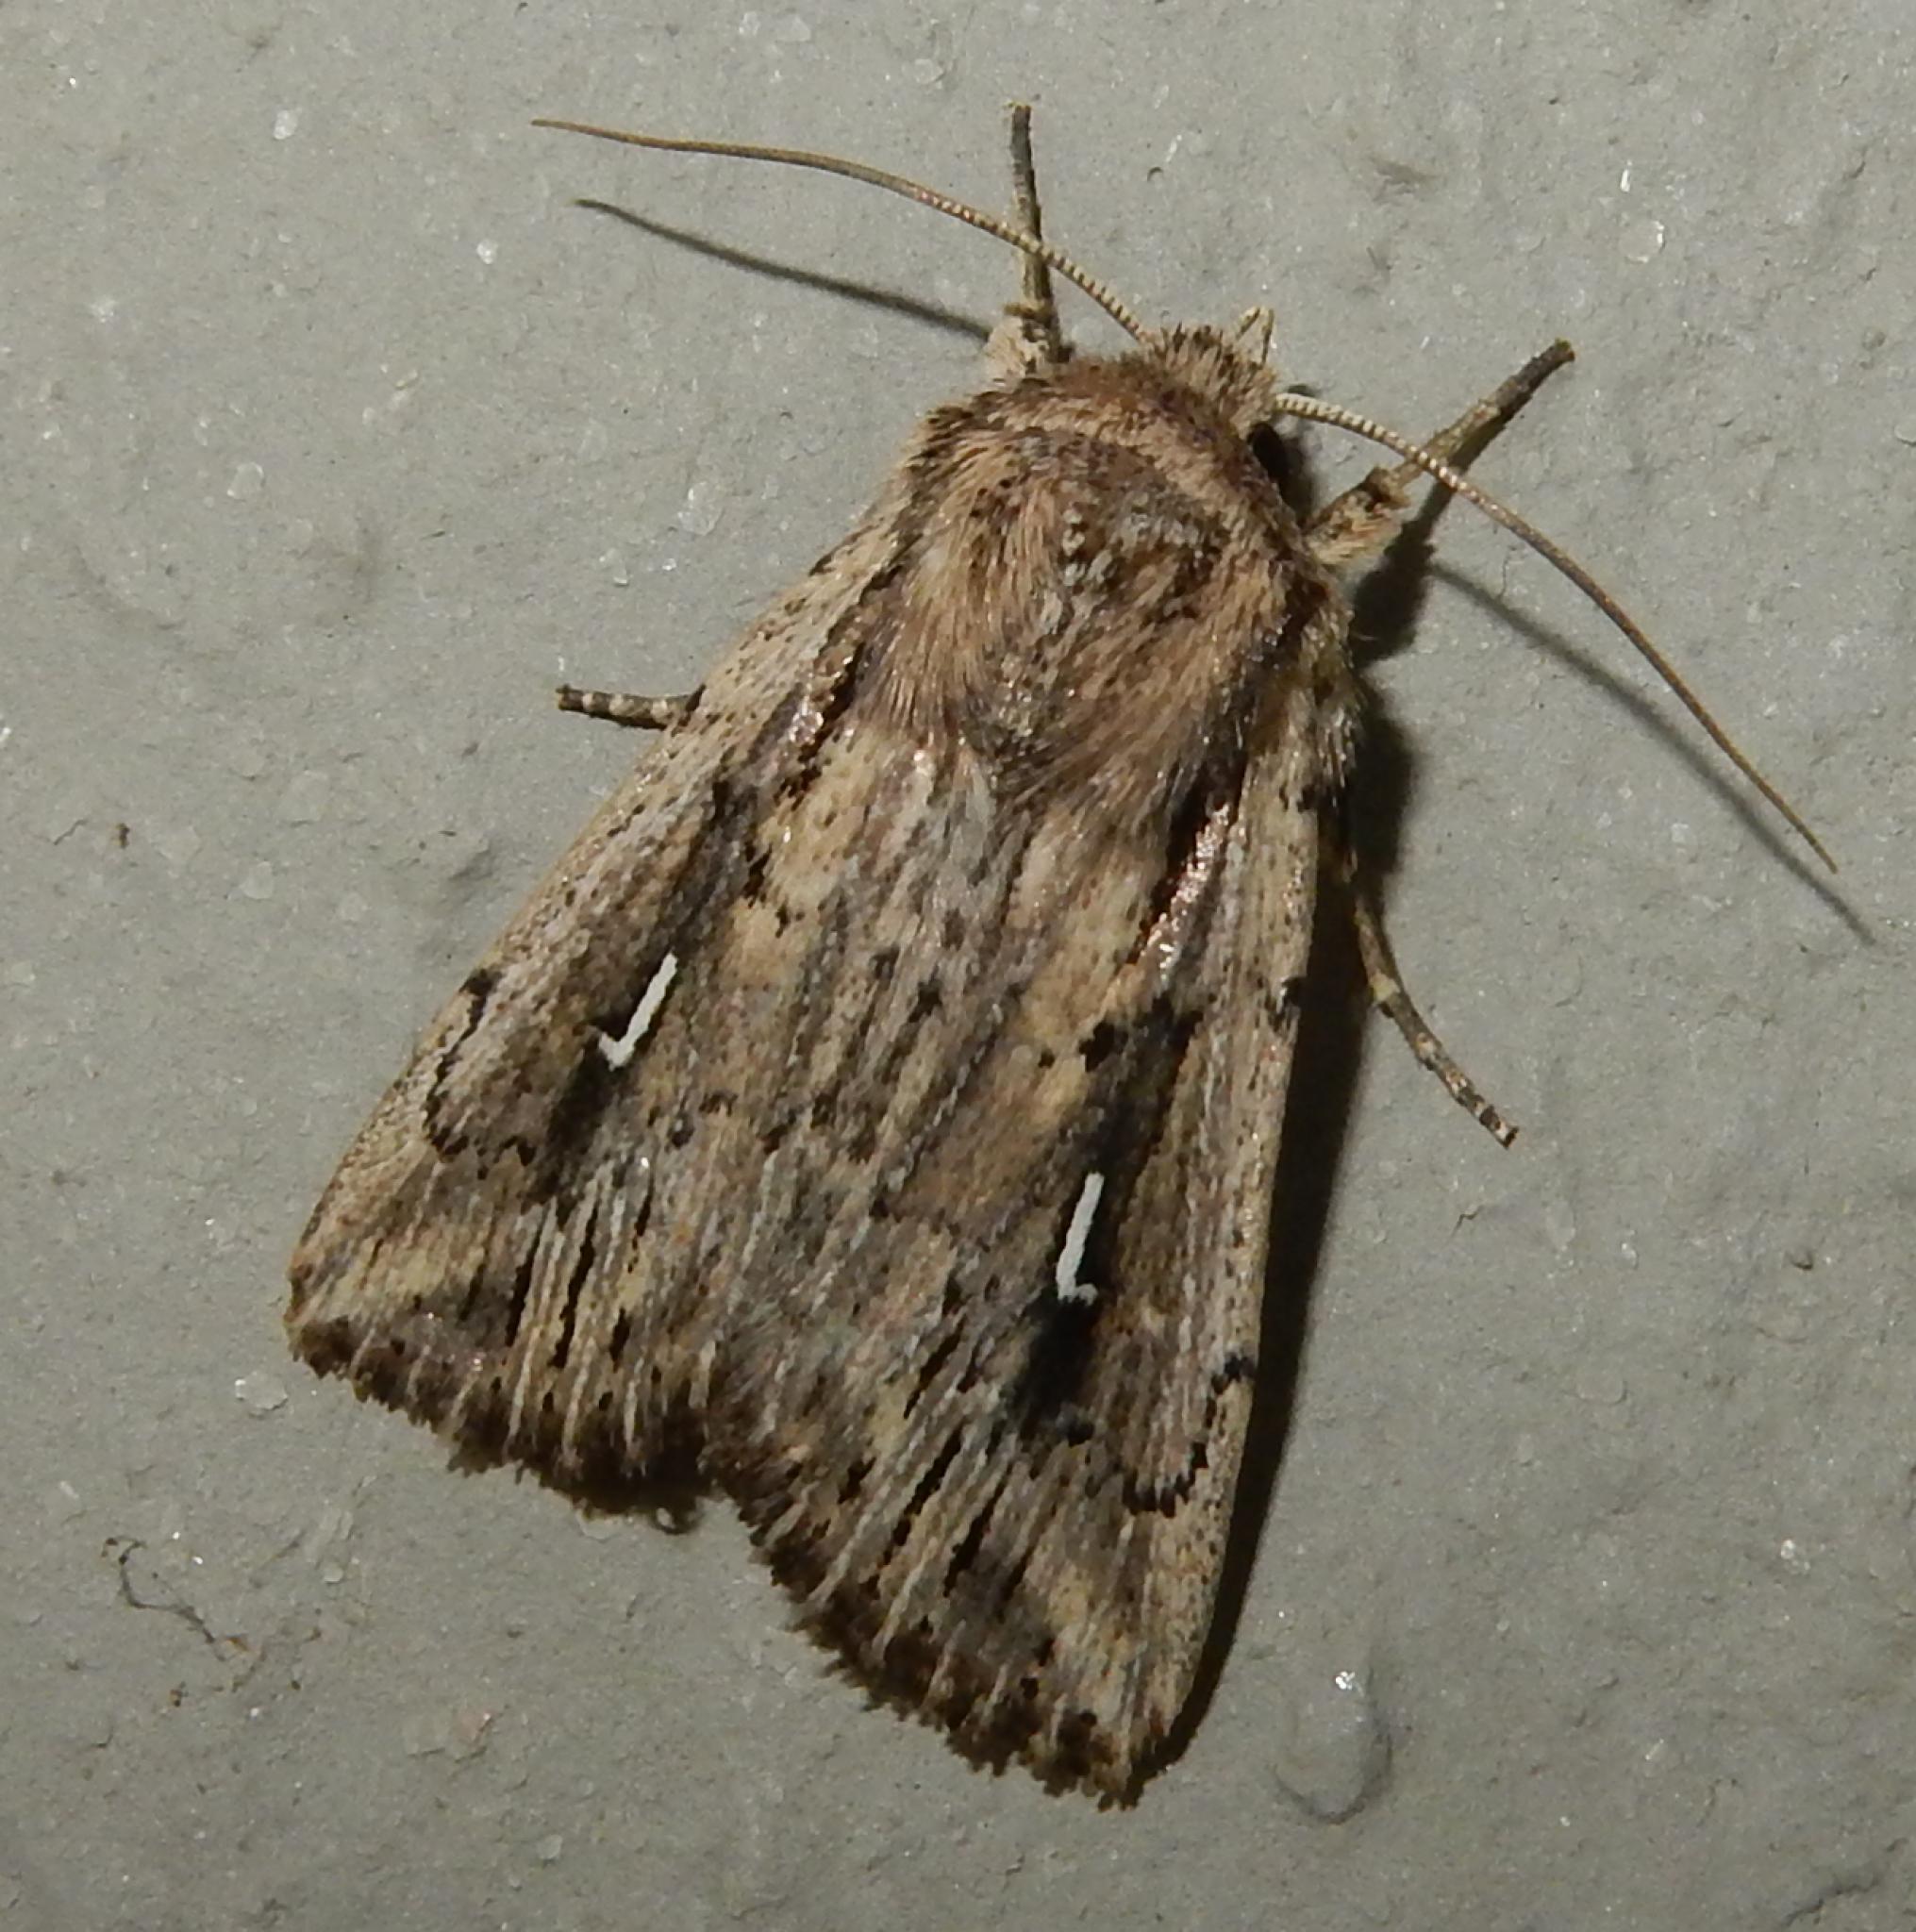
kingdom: Animalia
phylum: Arthropoda
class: Insecta
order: Lepidoptera
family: Noctuidae
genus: Mythimna
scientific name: Mythimna corax
